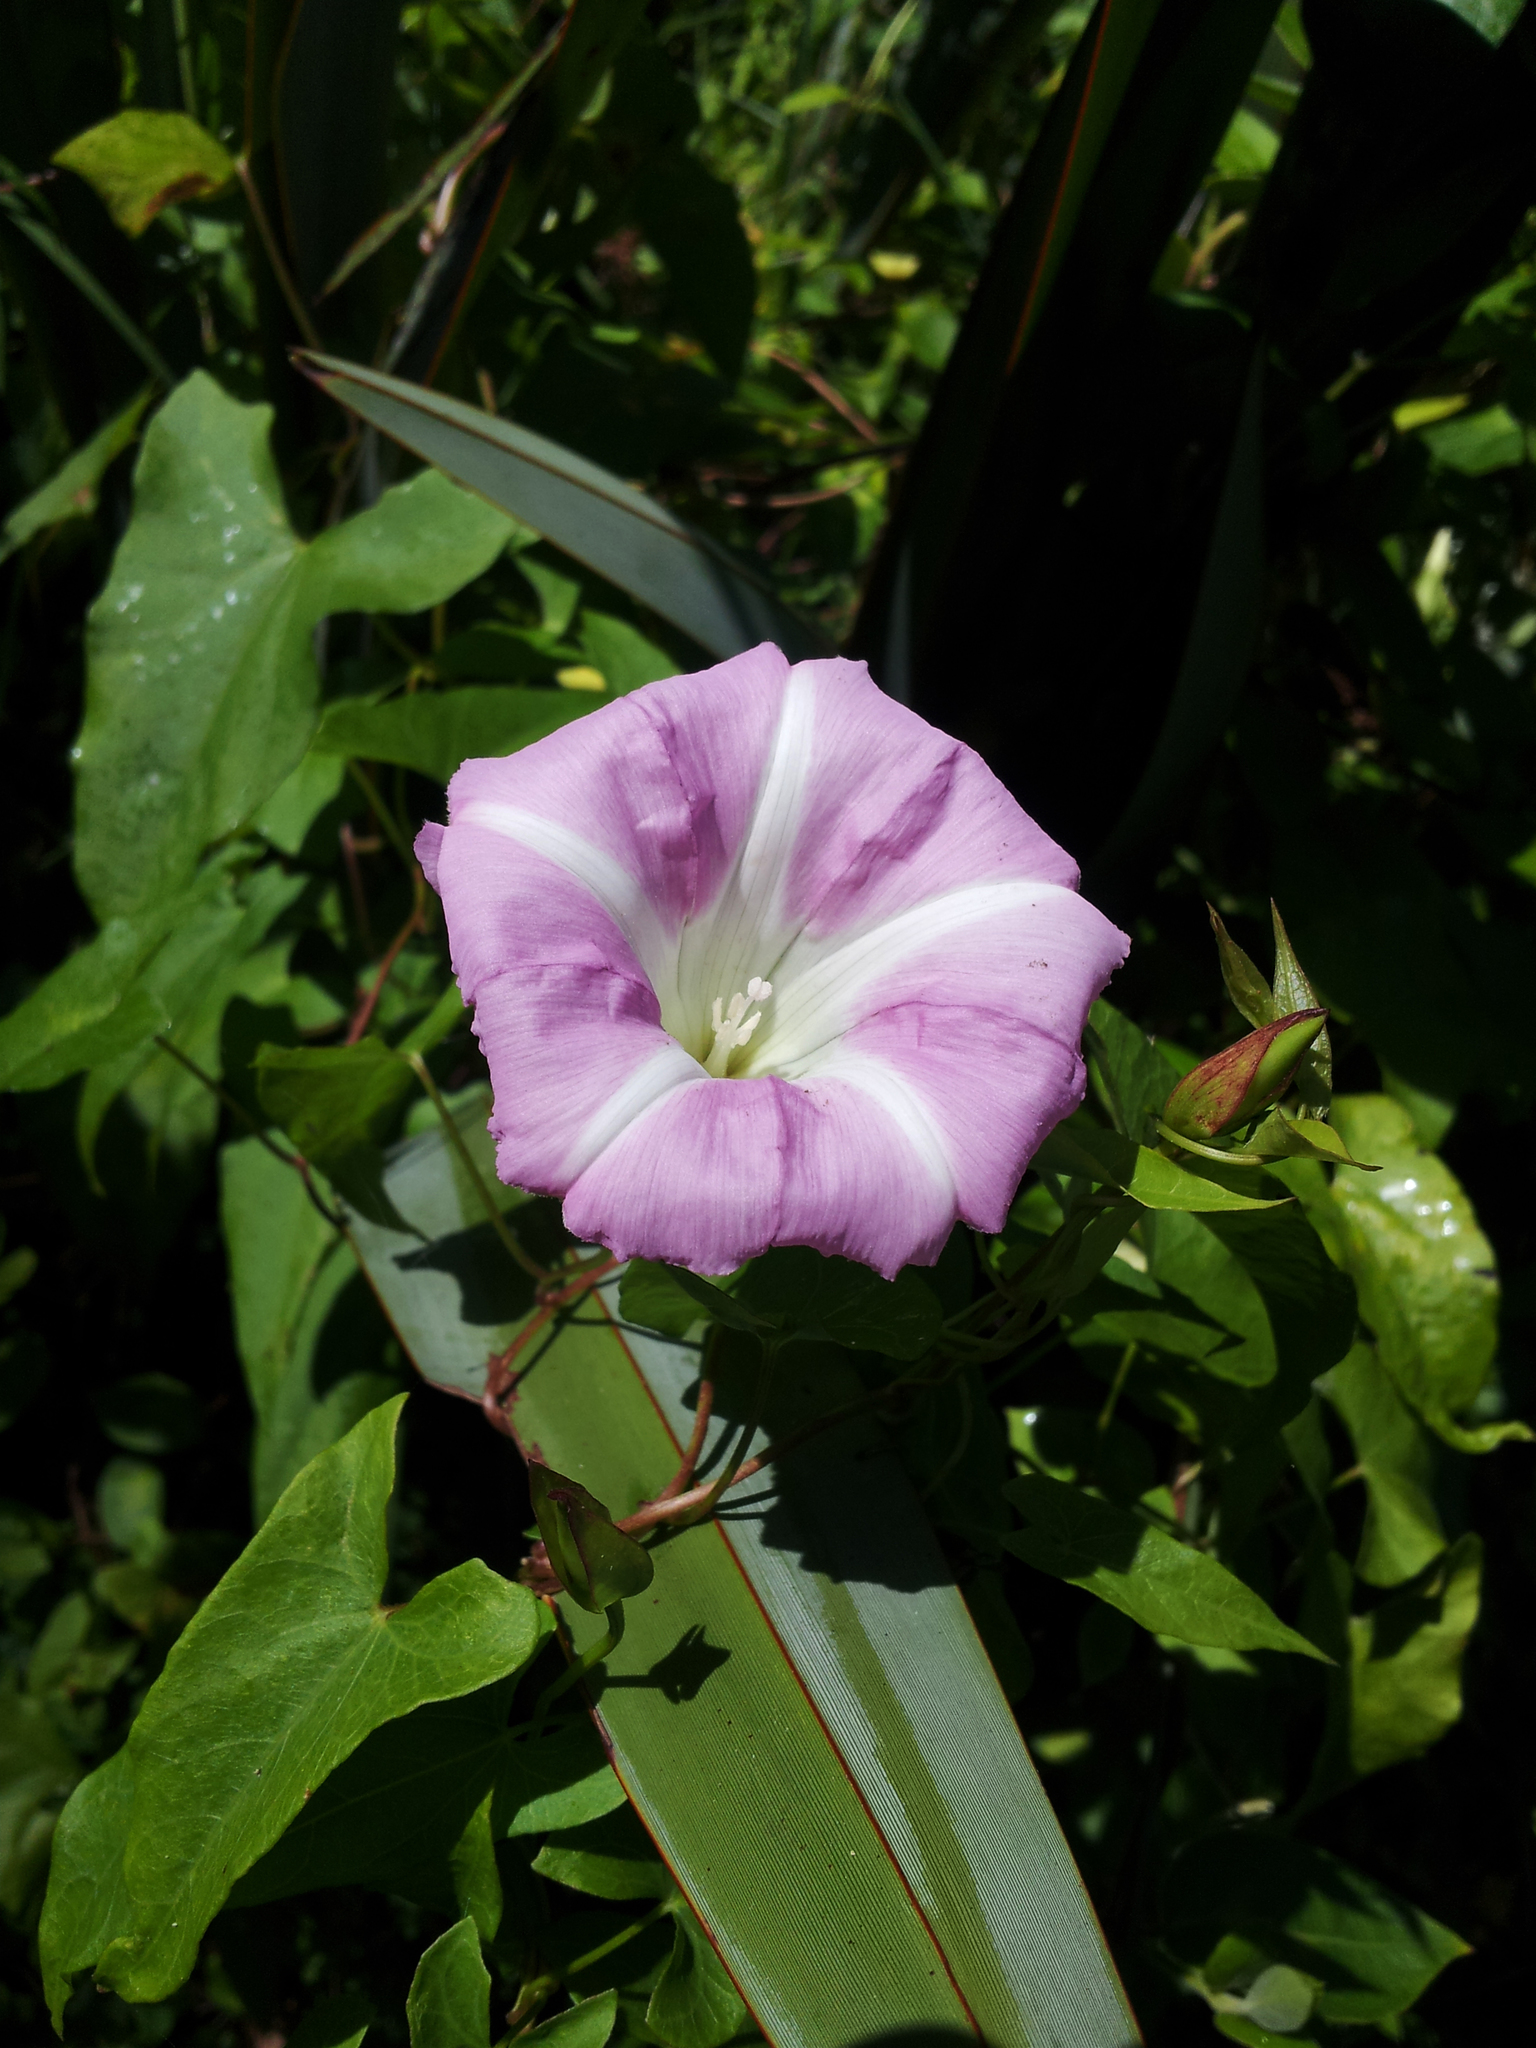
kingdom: Plantae
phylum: Tracheophyta
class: Magnoliopsida
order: Solanales
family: Convolvulaceae
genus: Calystegia
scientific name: Calystegia sepium
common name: Hedge bindweed
